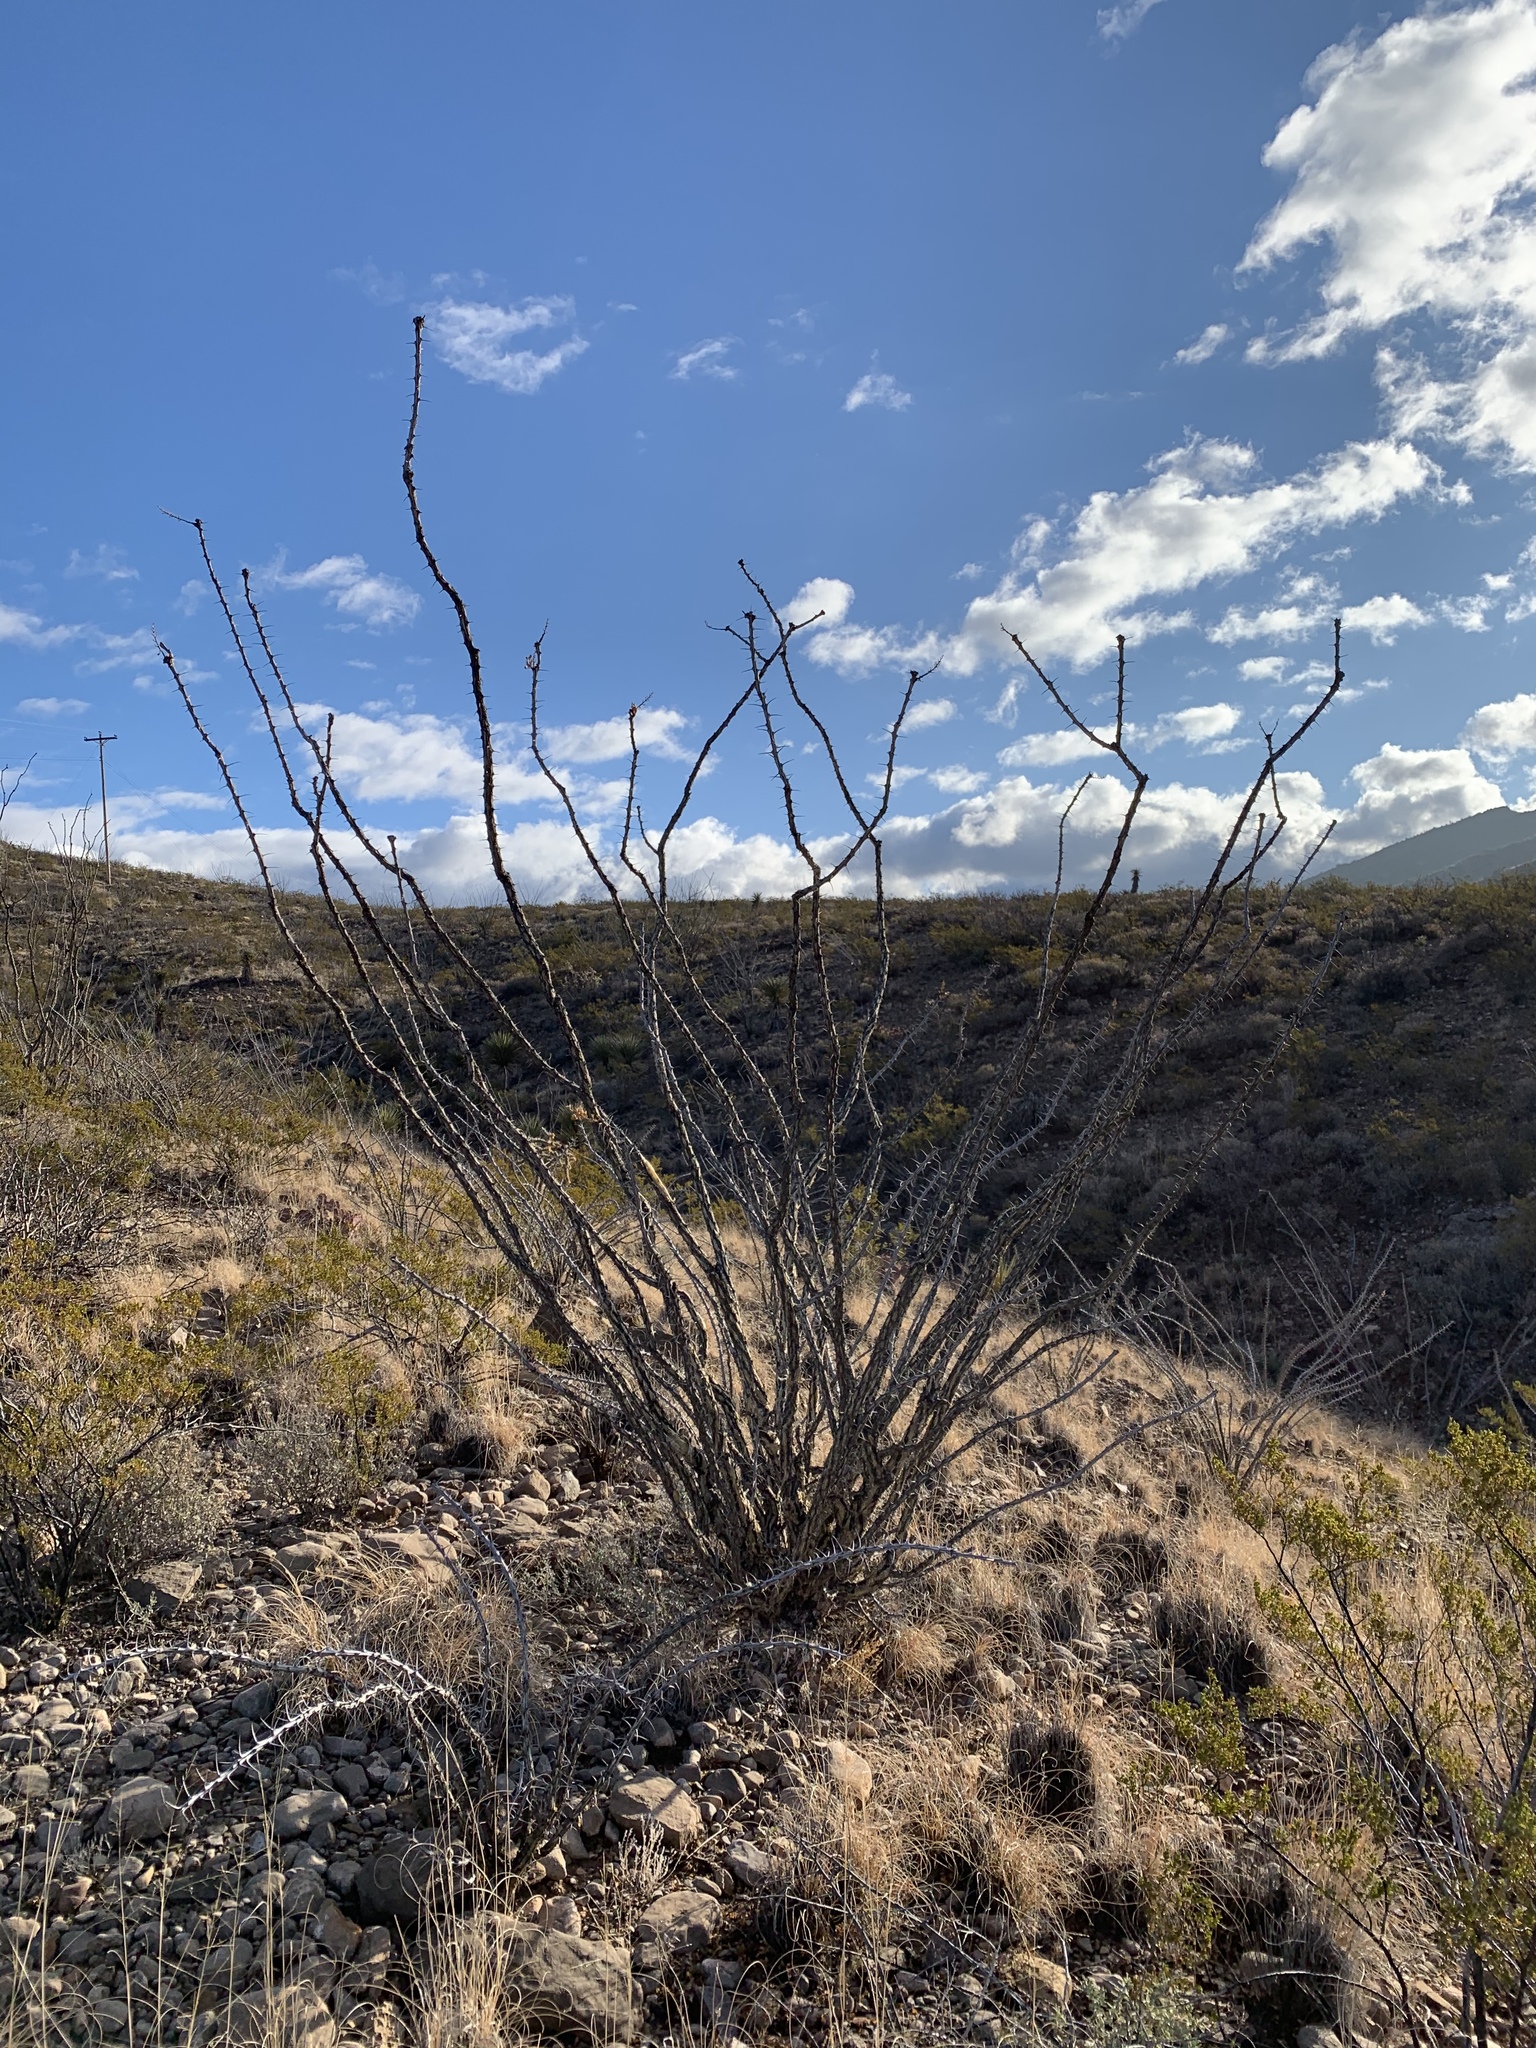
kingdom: Plantae
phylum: Tracheophyta
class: Magnoliopsida
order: Ericales
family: Fouquieriaceae
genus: Fouquieria
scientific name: Fouquieria splendens
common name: Vine-cactus
